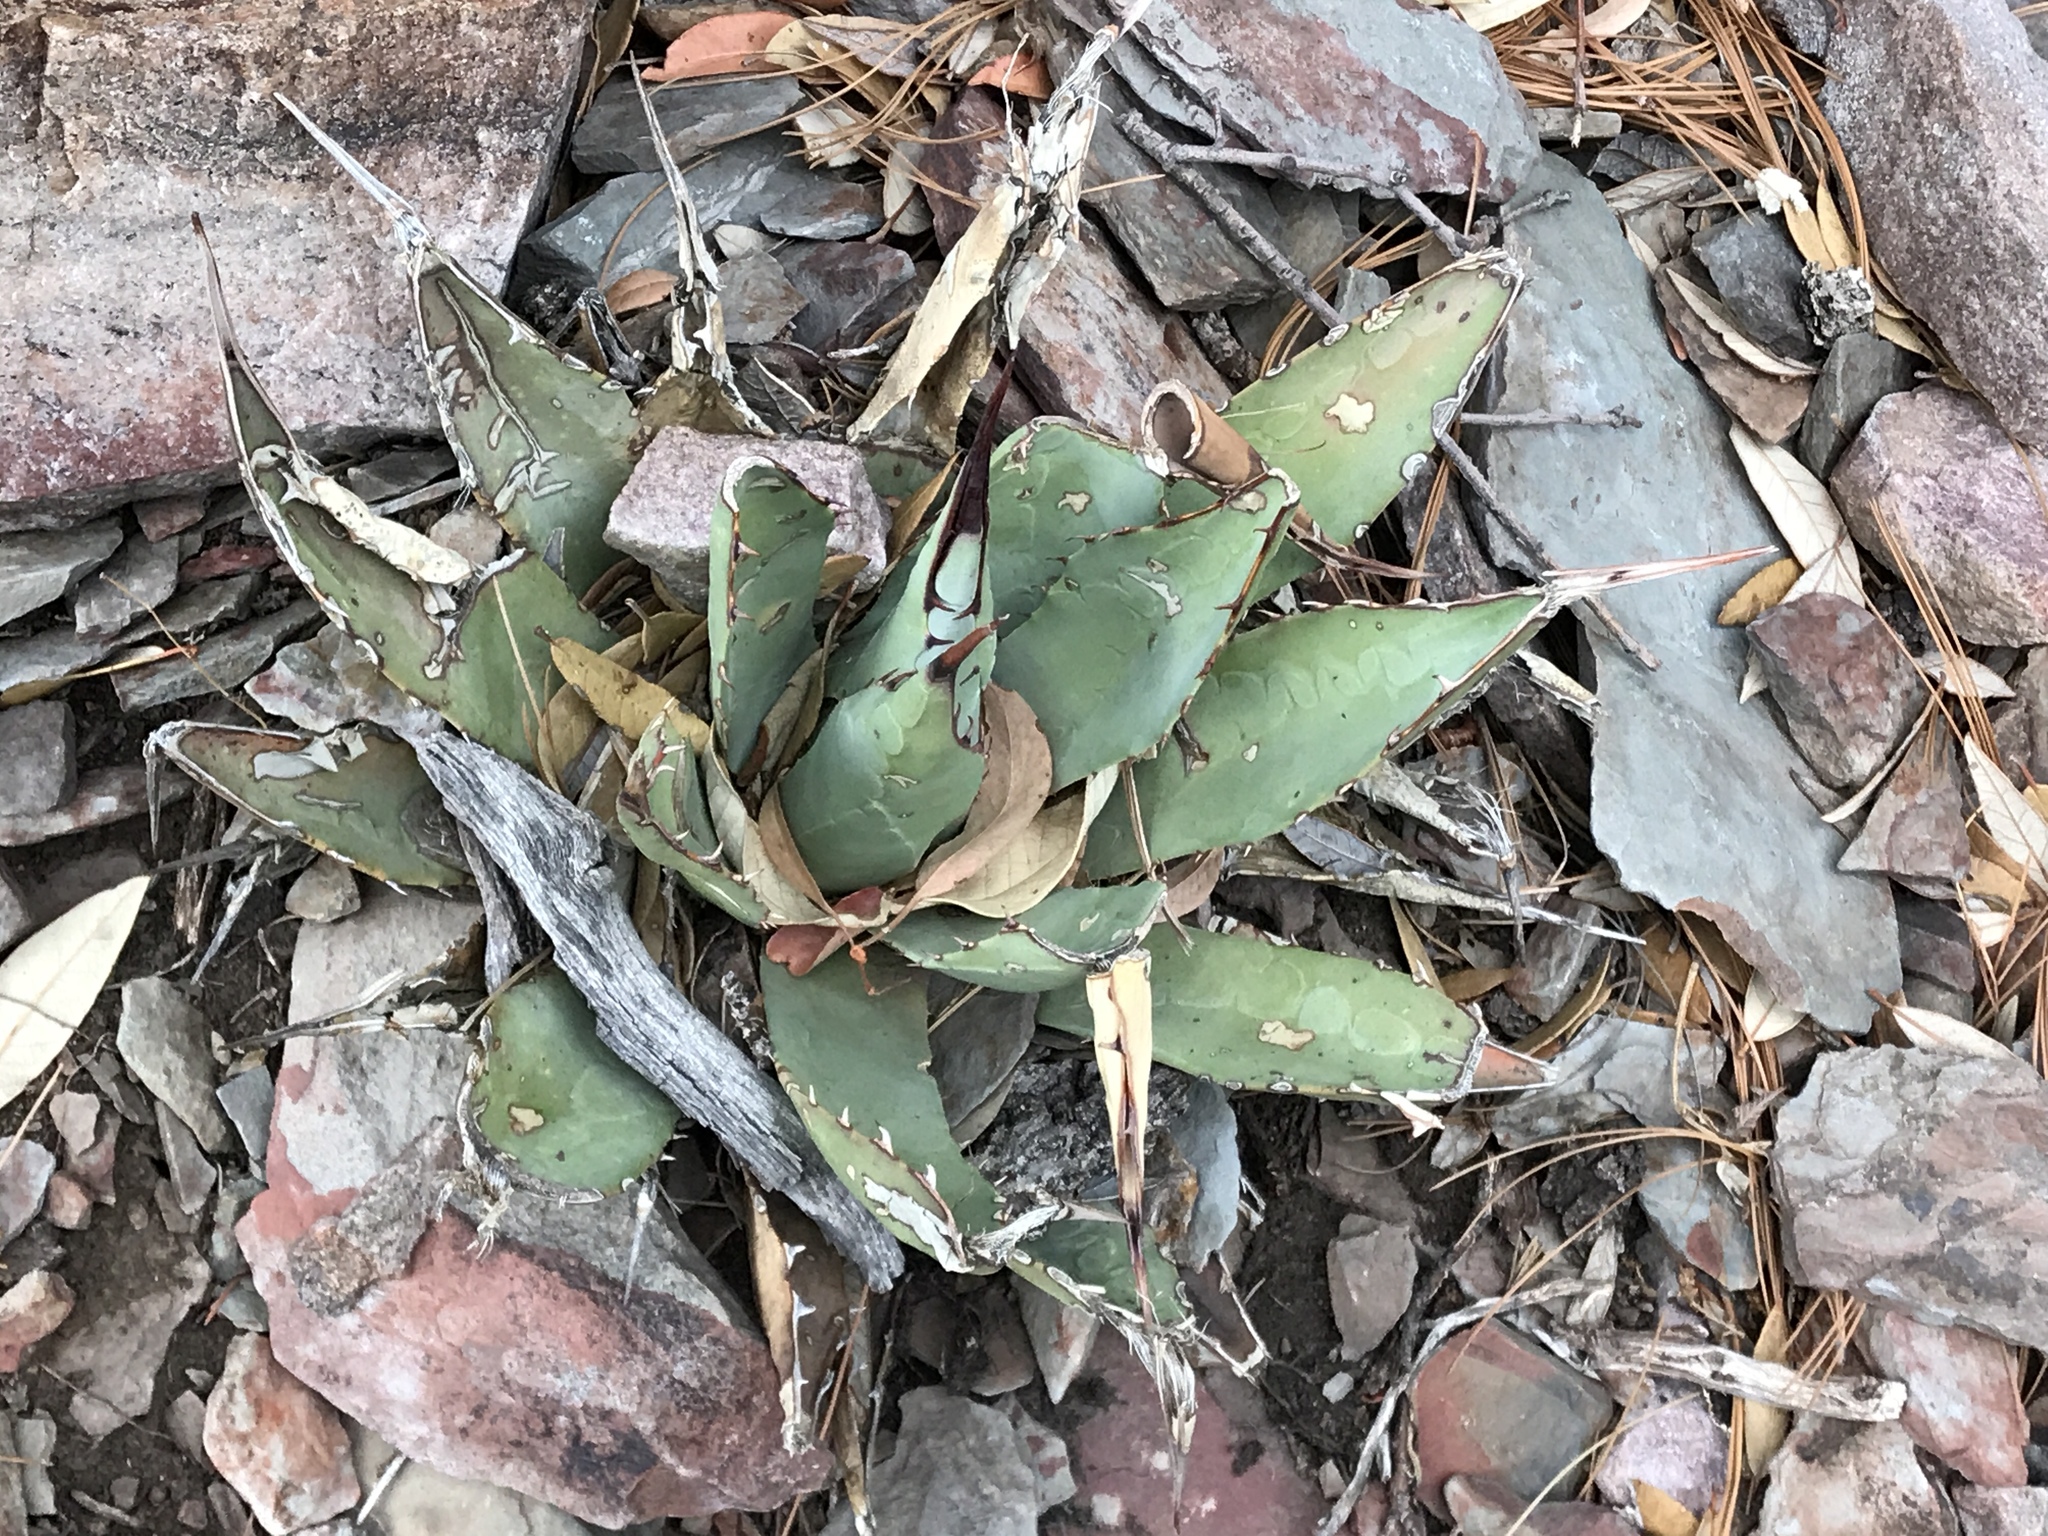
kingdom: Plantae
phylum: Tracheophyta
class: Liliopsida
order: Asparagales
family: Asparagaceae
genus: Agave
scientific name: Agave parryi
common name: Parry's agave
